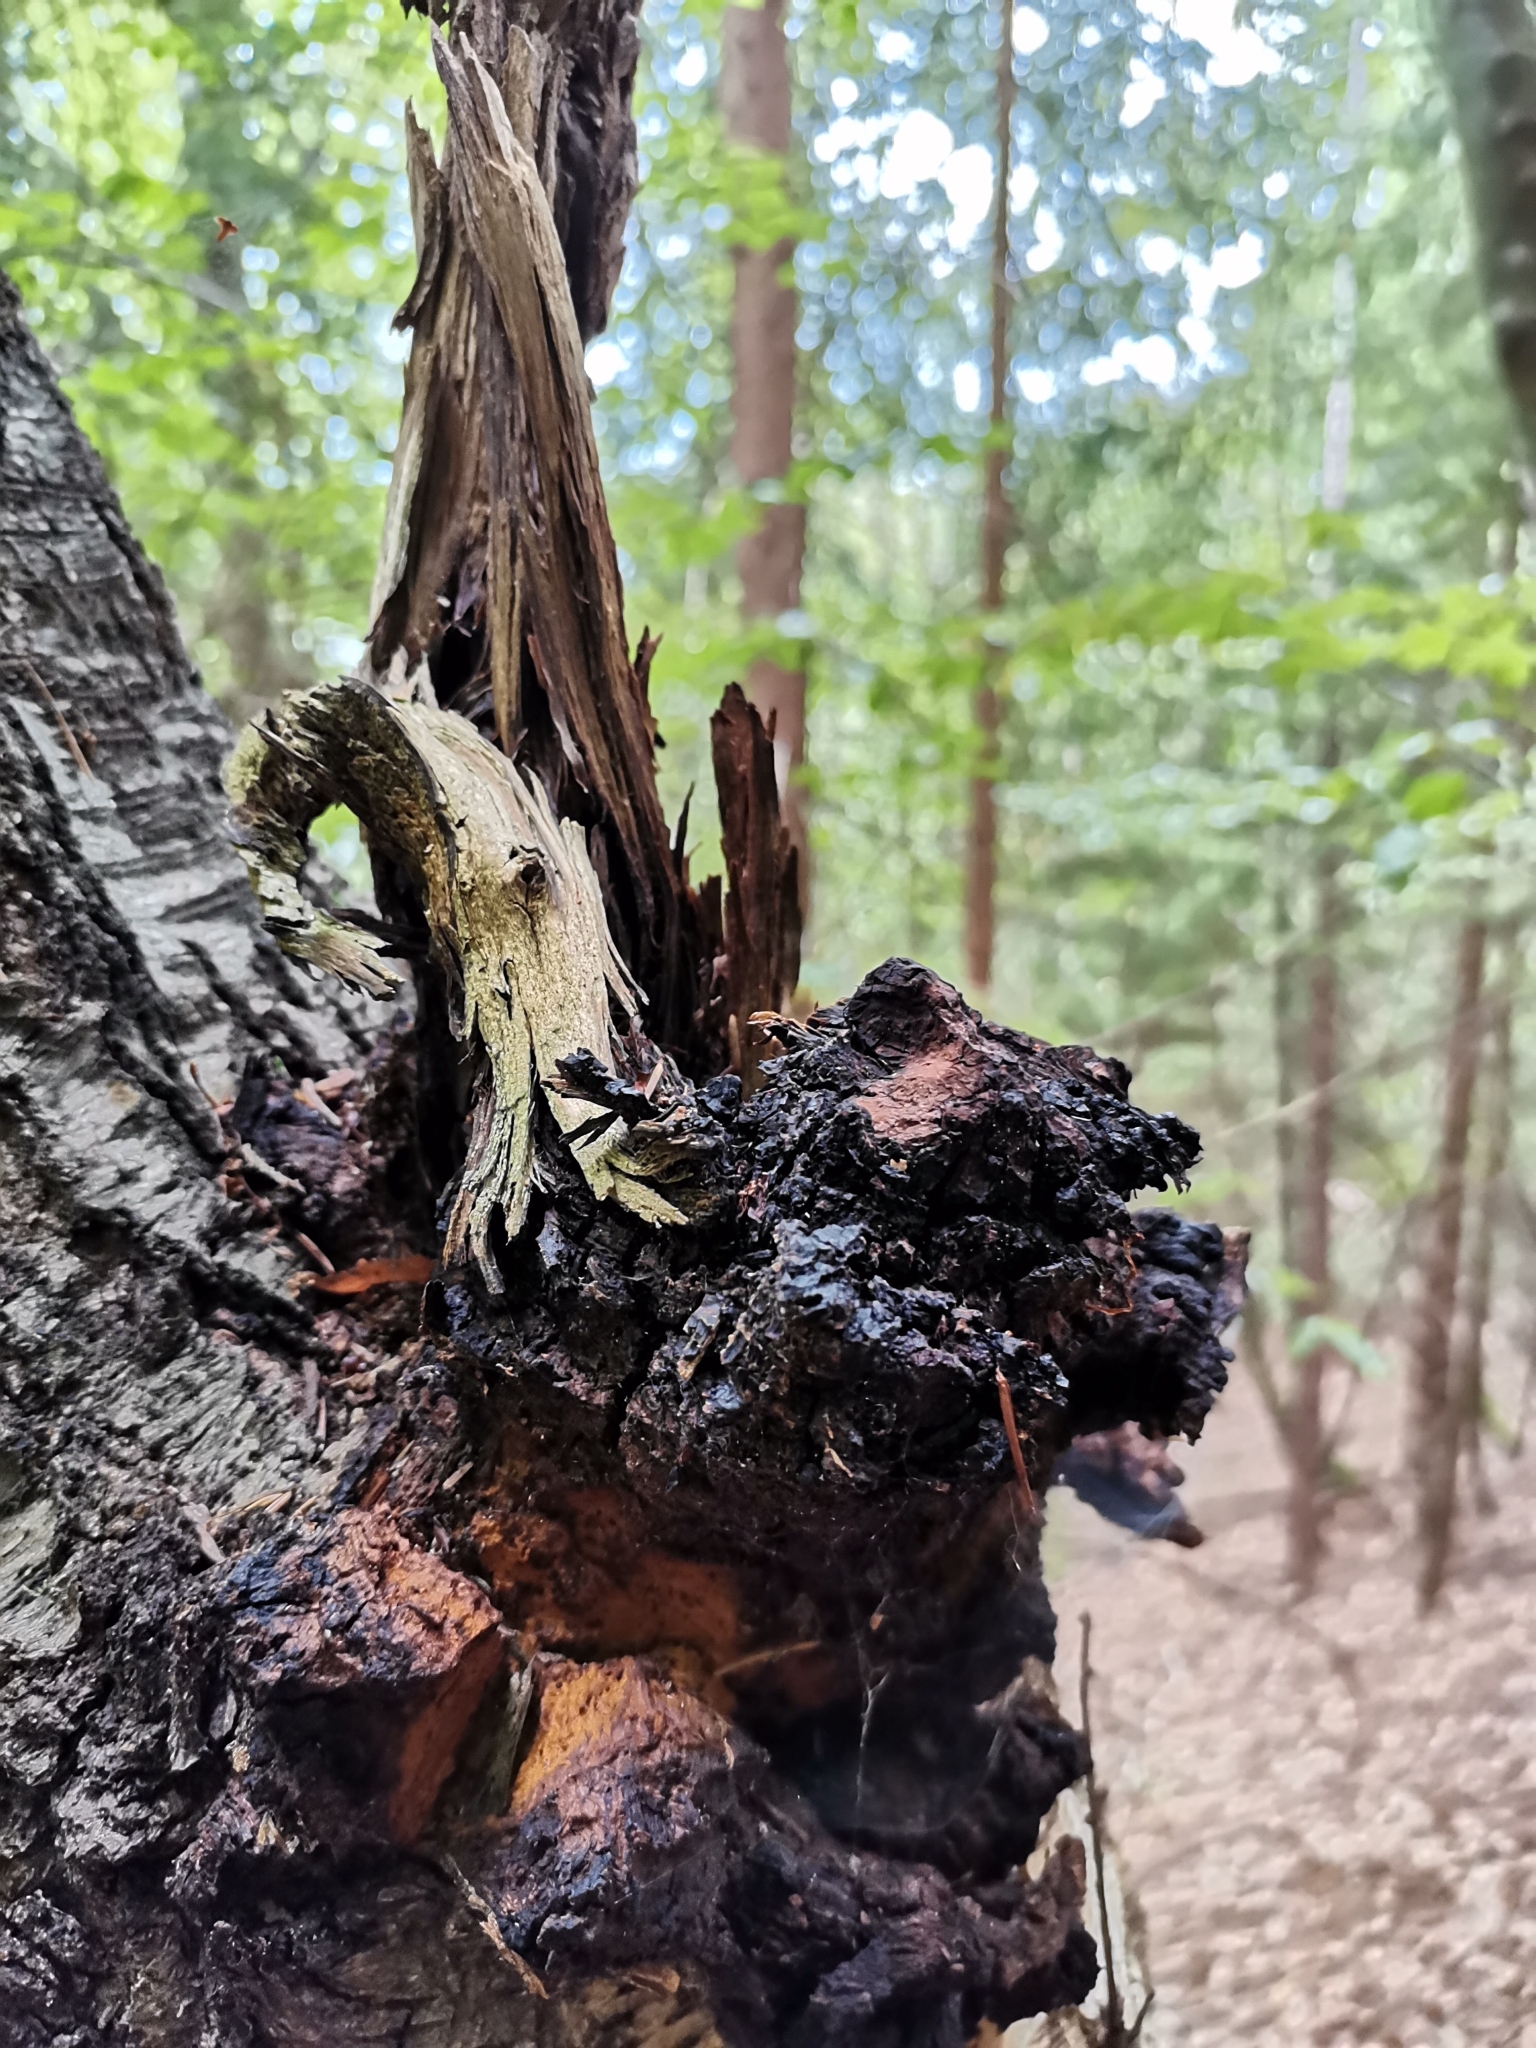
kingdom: Fungi
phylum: Basidiomycota
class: Agaricomycetes
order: Hymenochaetales
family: Hymenochaetaceae
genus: Inonotus
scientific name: Inonotus obliquus
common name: Chaga
